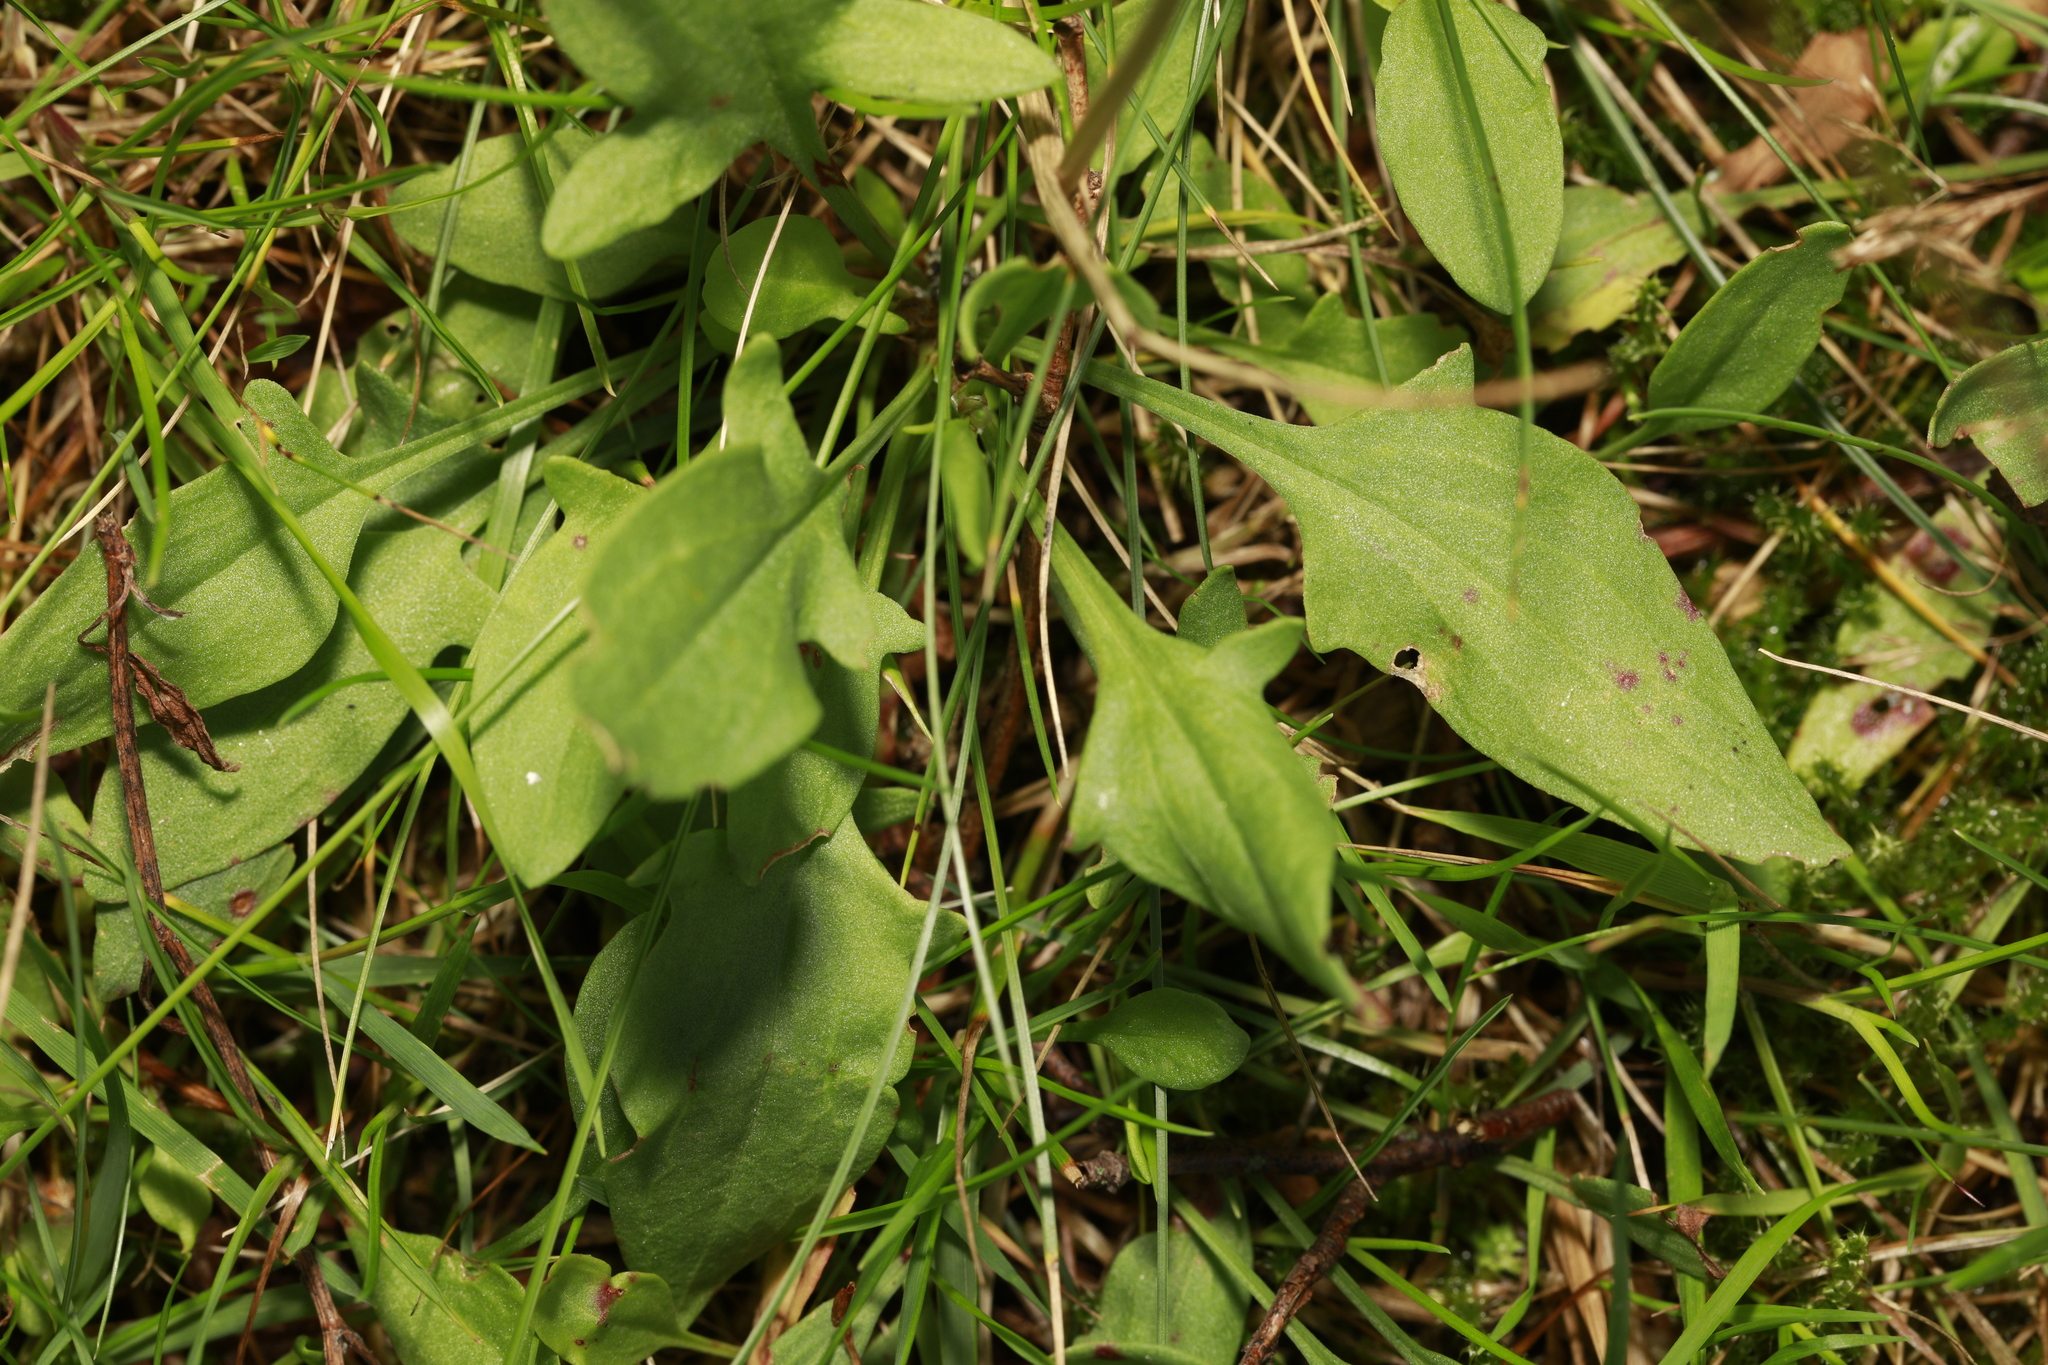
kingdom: Plantae
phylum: Tracheophyta
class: Magnoliopsida
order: Caryophyllales
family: Polygonaceae
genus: Rumex
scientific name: Rumex acetosella
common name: Common sheep sorrel
